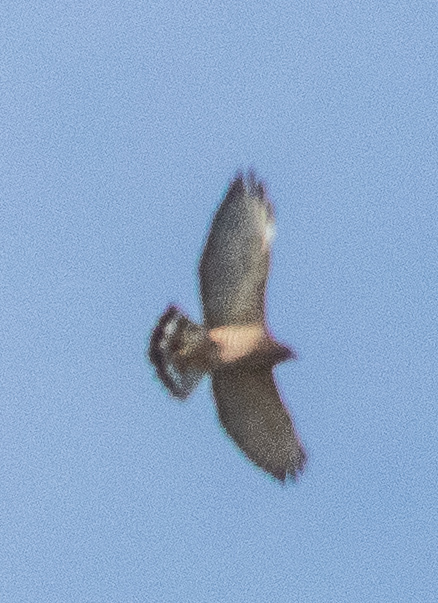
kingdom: Animalia
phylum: Chordata
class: Aves
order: Accipitriformes
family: Accipitridae
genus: Buteo
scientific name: Buteo platypterus
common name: Broad-winged hawk
